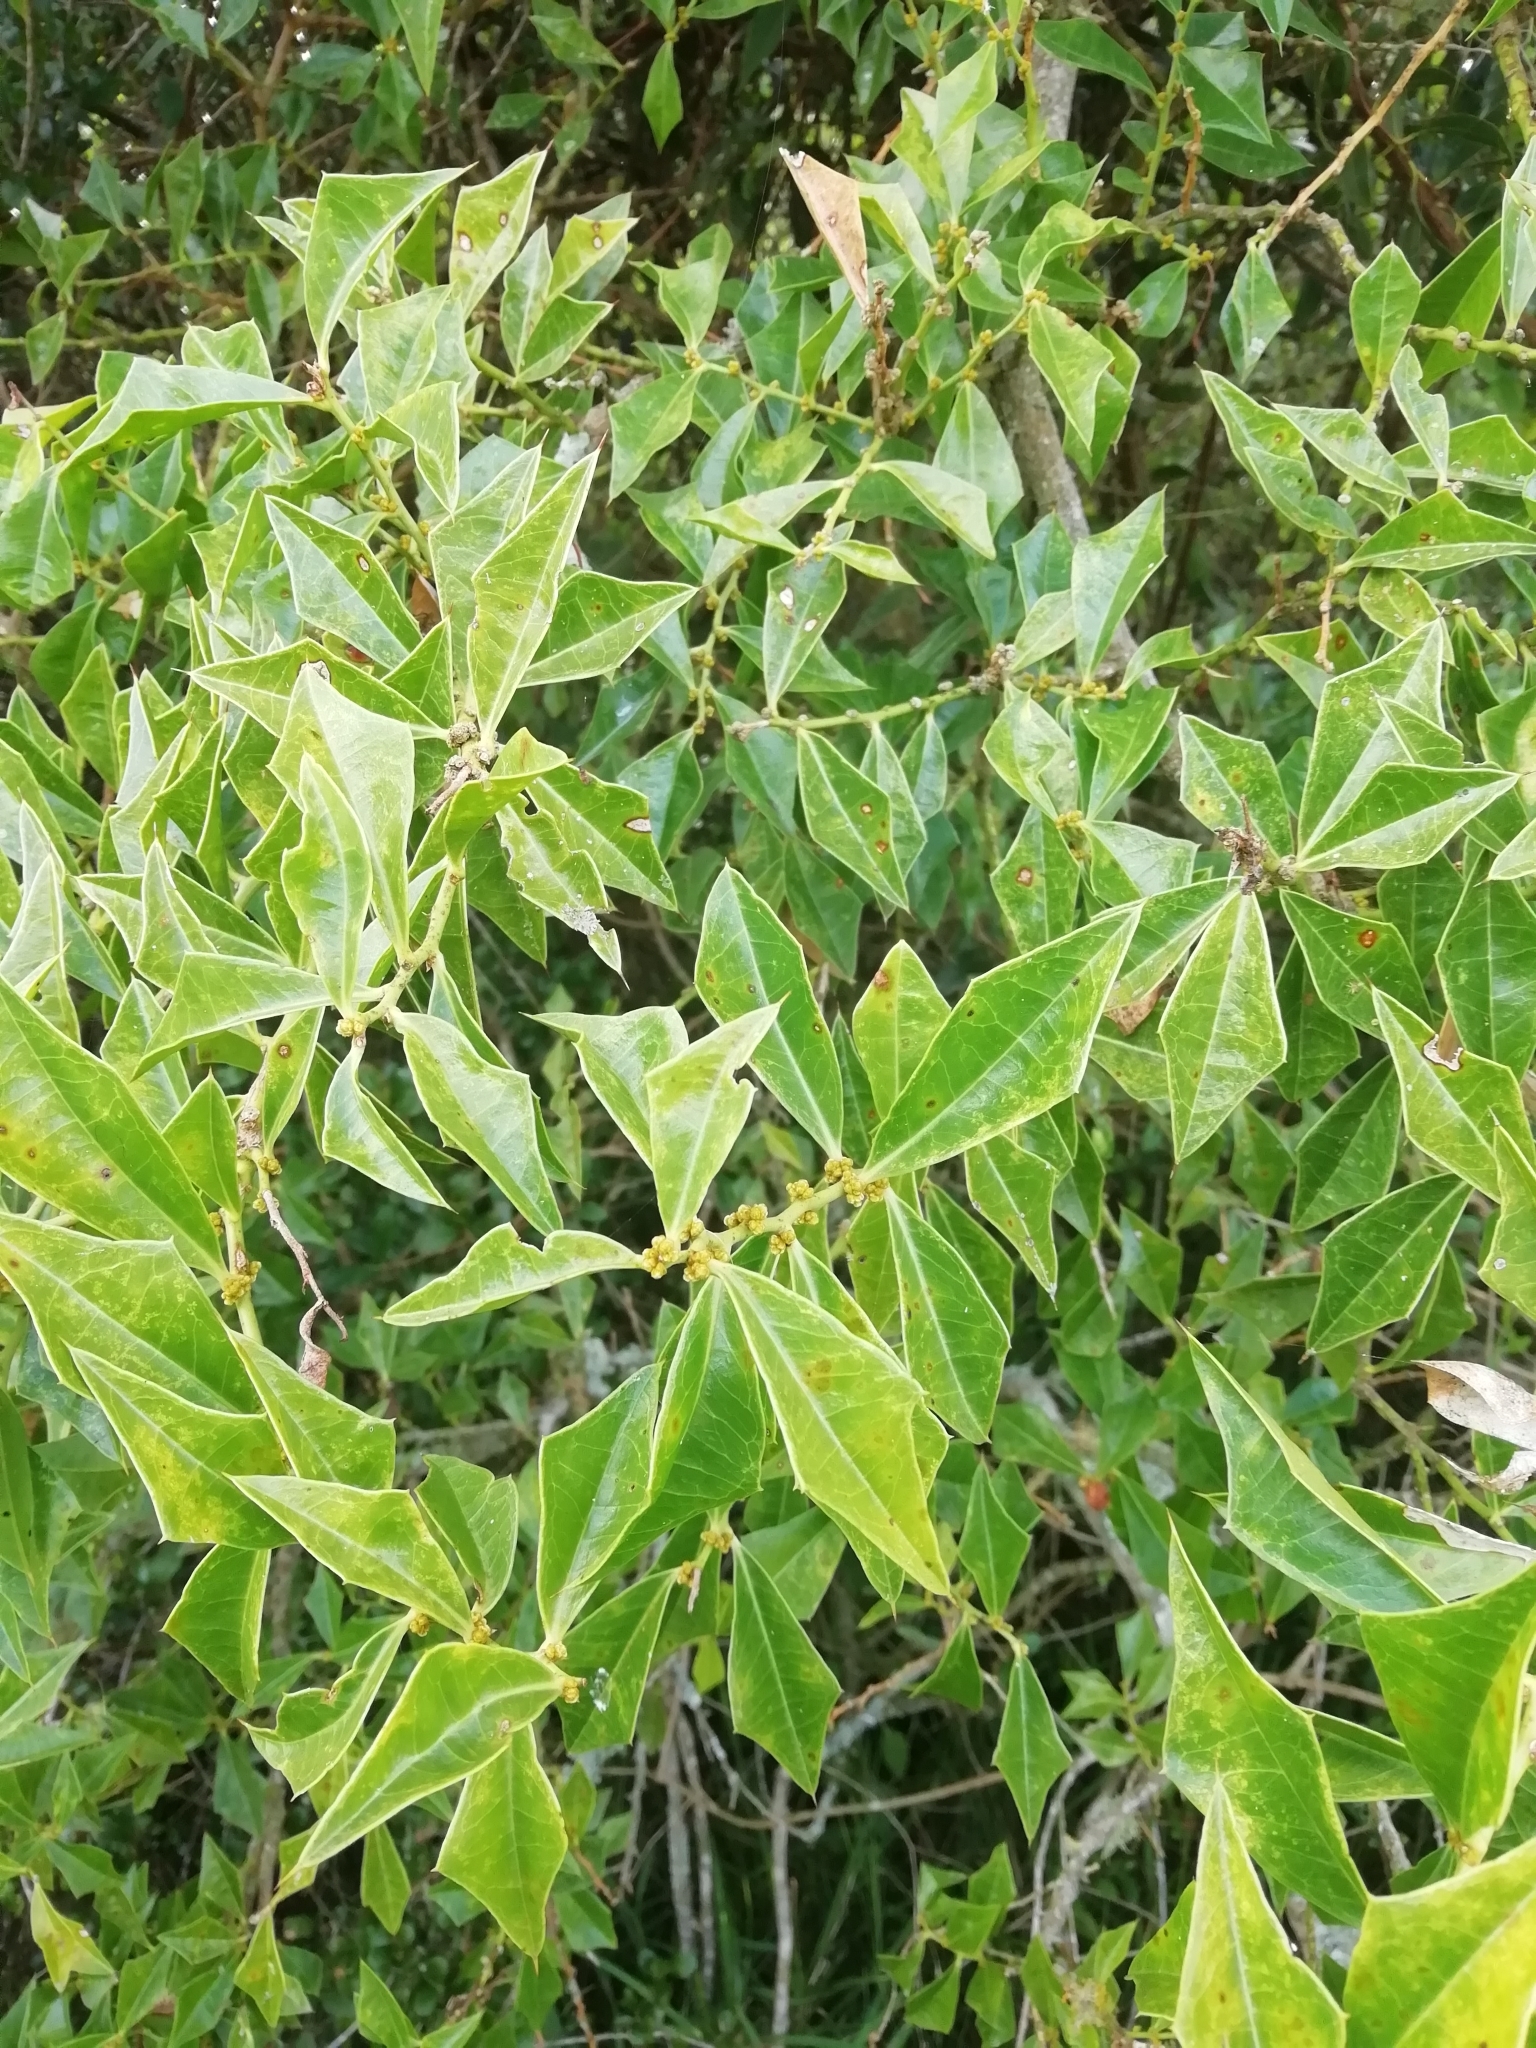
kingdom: Plantae
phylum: Tracheophyta
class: Magnoliopsida
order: Santalales
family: Cervantesiaceae
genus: Jodina
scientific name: Jodina rhombifolia
